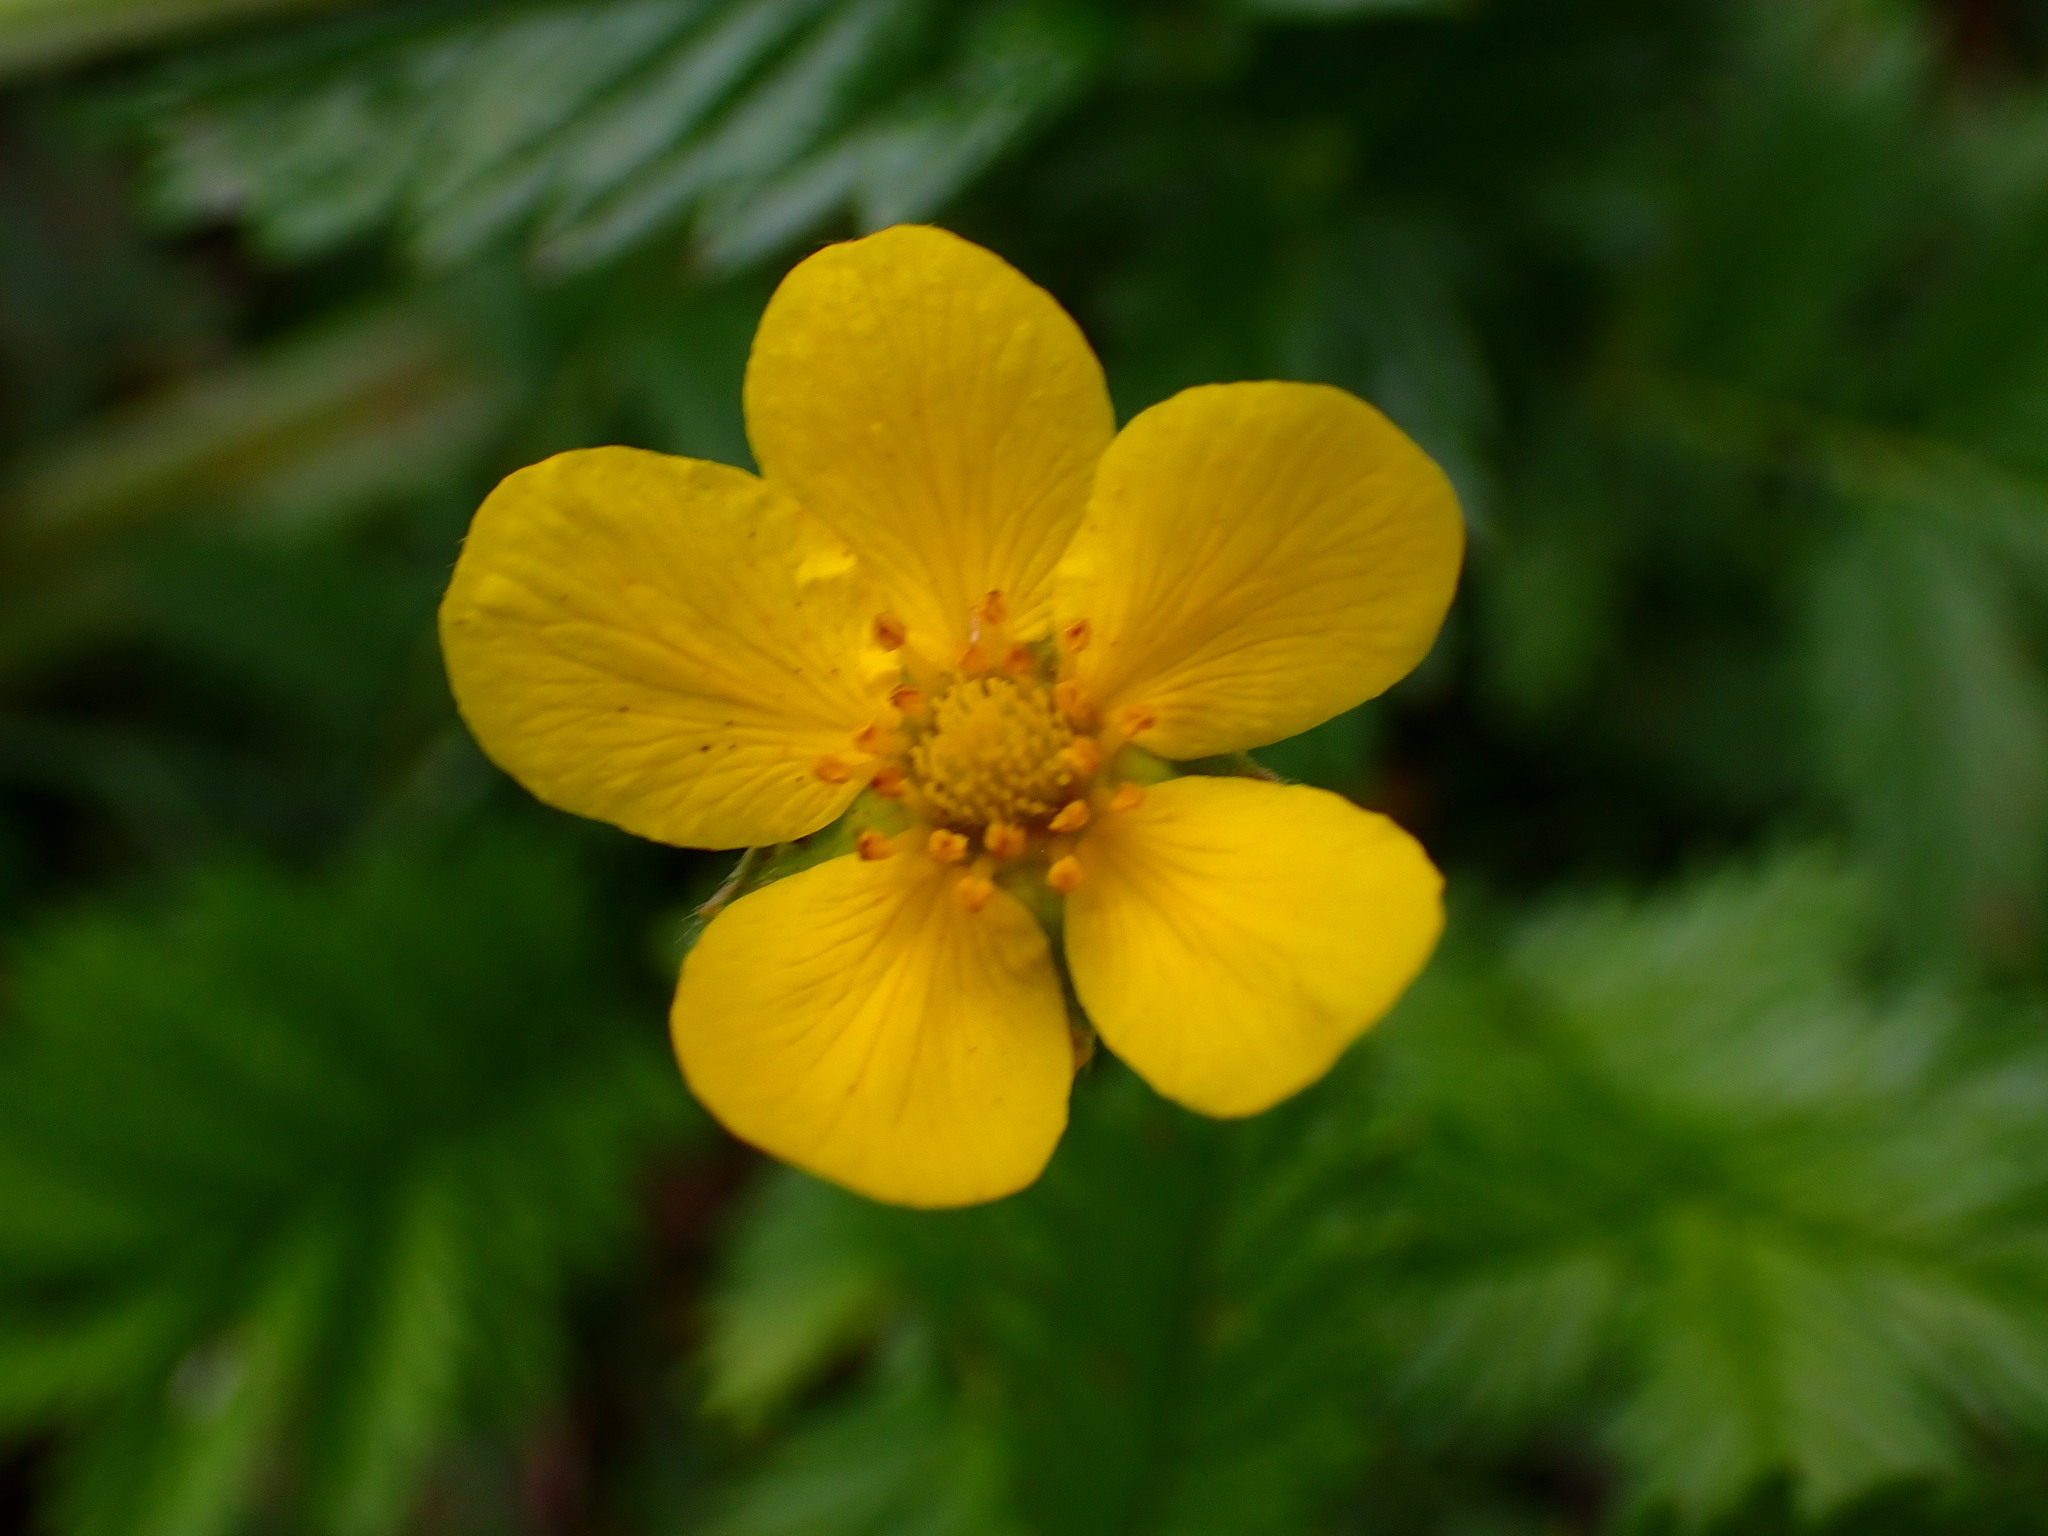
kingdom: Plantae
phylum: Tracheophyta
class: Magnoliopsida
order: Rosales
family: Rosaceae
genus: Argentina
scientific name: Argentina anserina
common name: Common silverweed
